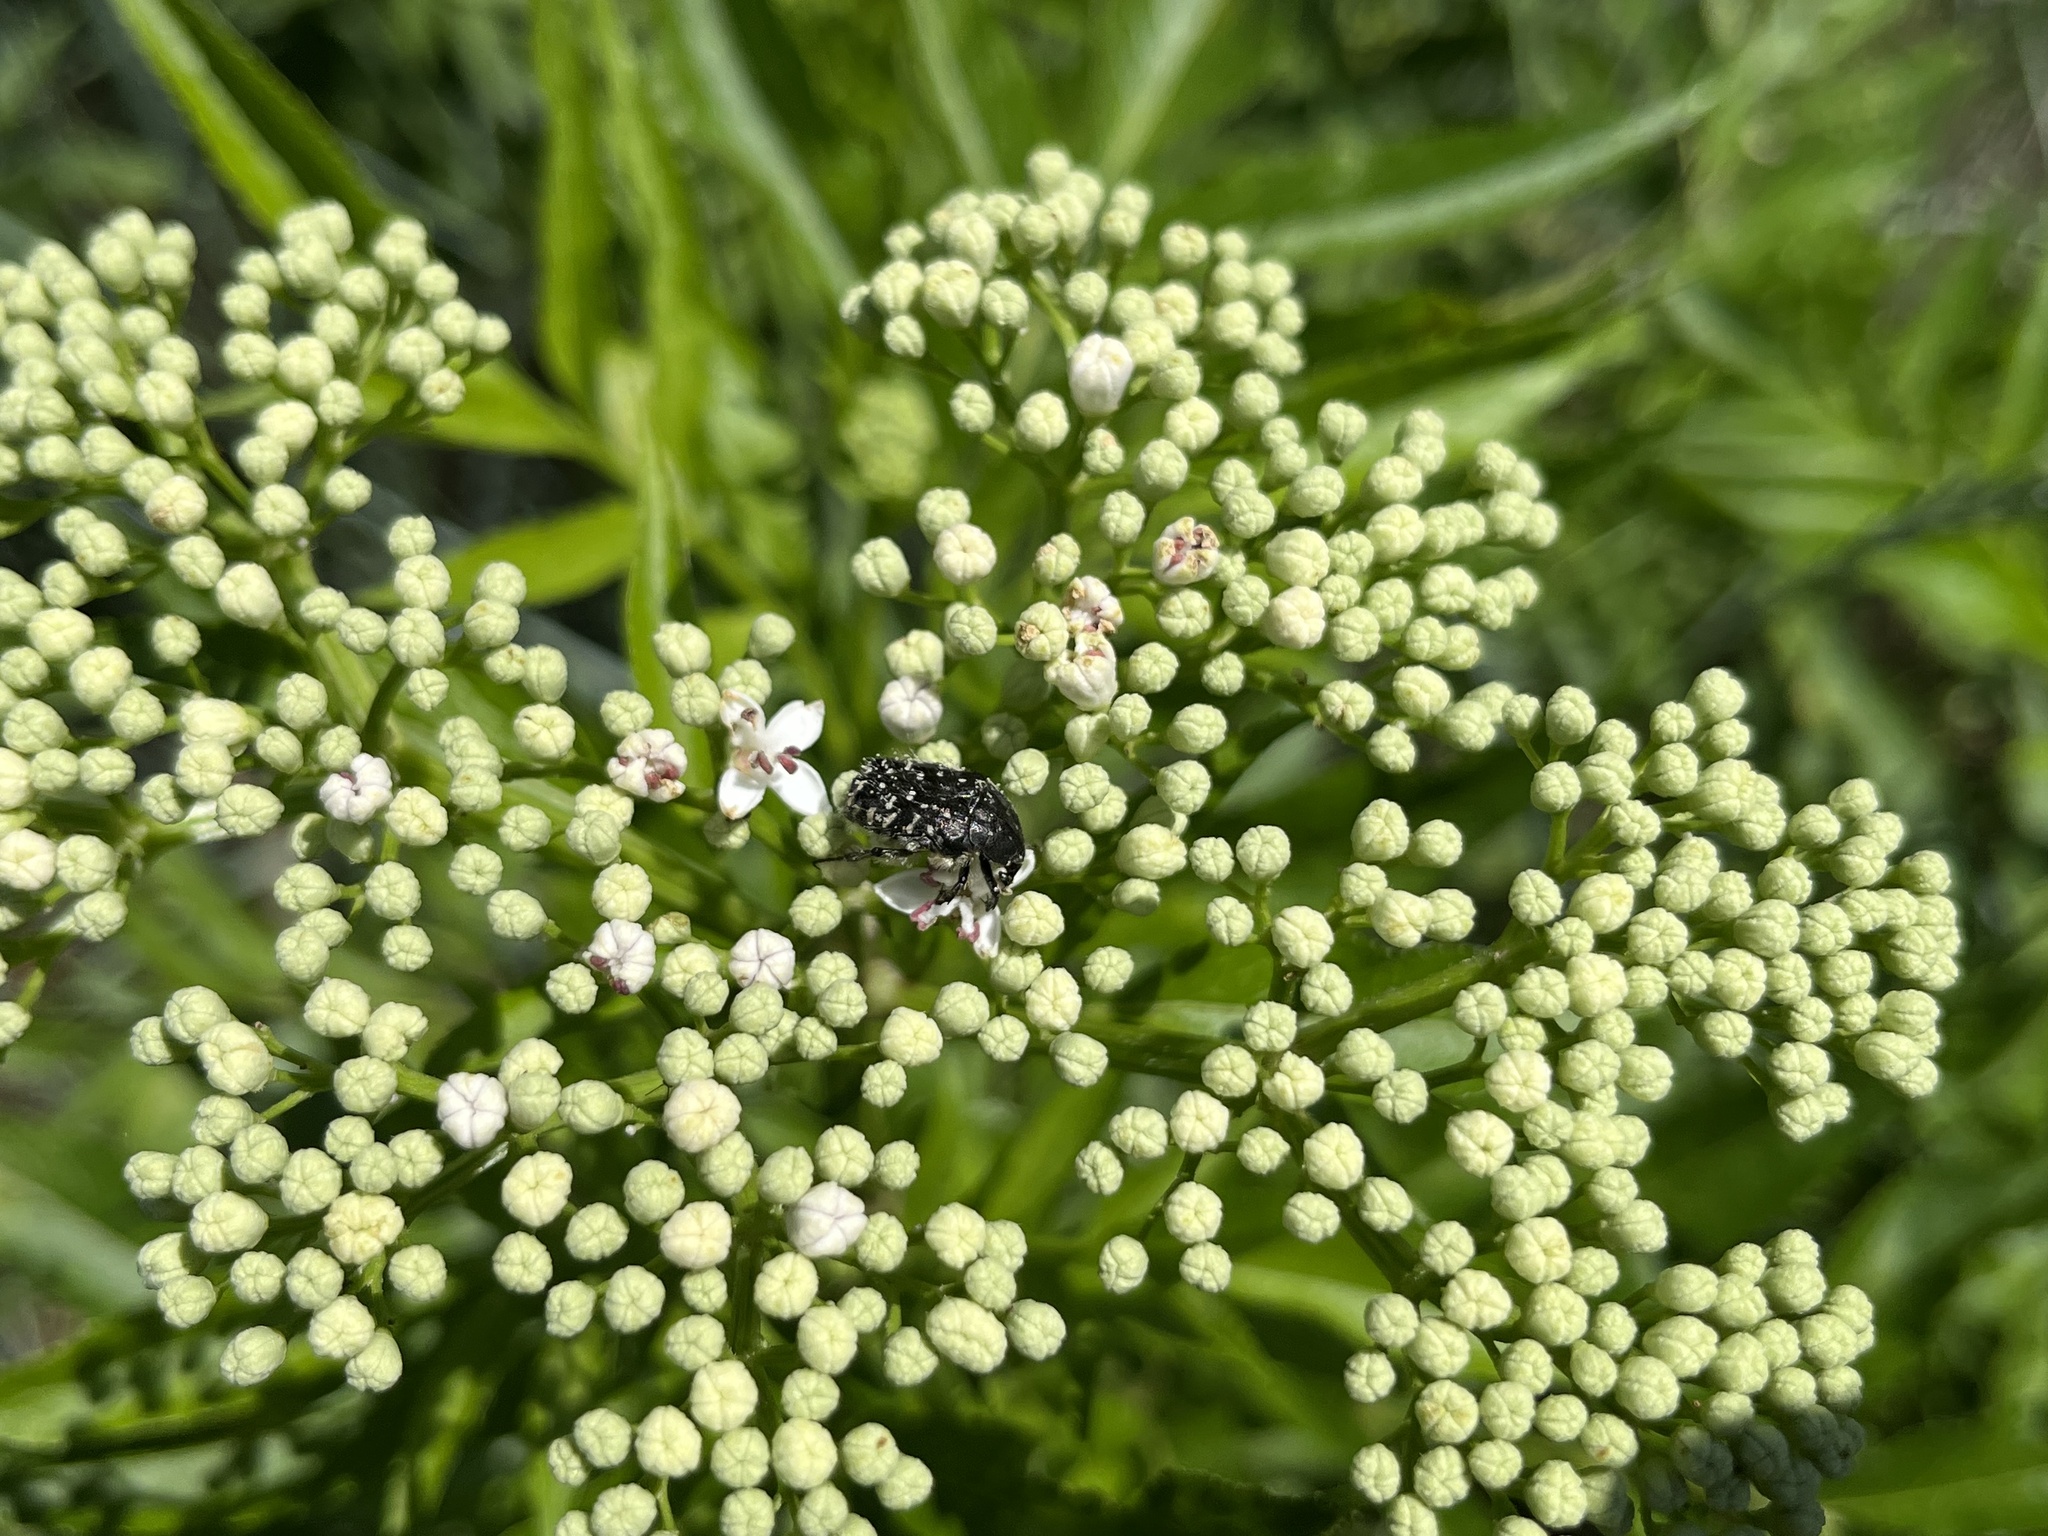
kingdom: Animalia
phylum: Arthropoda
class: Insecta
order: Coleoptera
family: Scarabaeidae
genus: Oxythyrea
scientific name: Oxythyrea funesta
